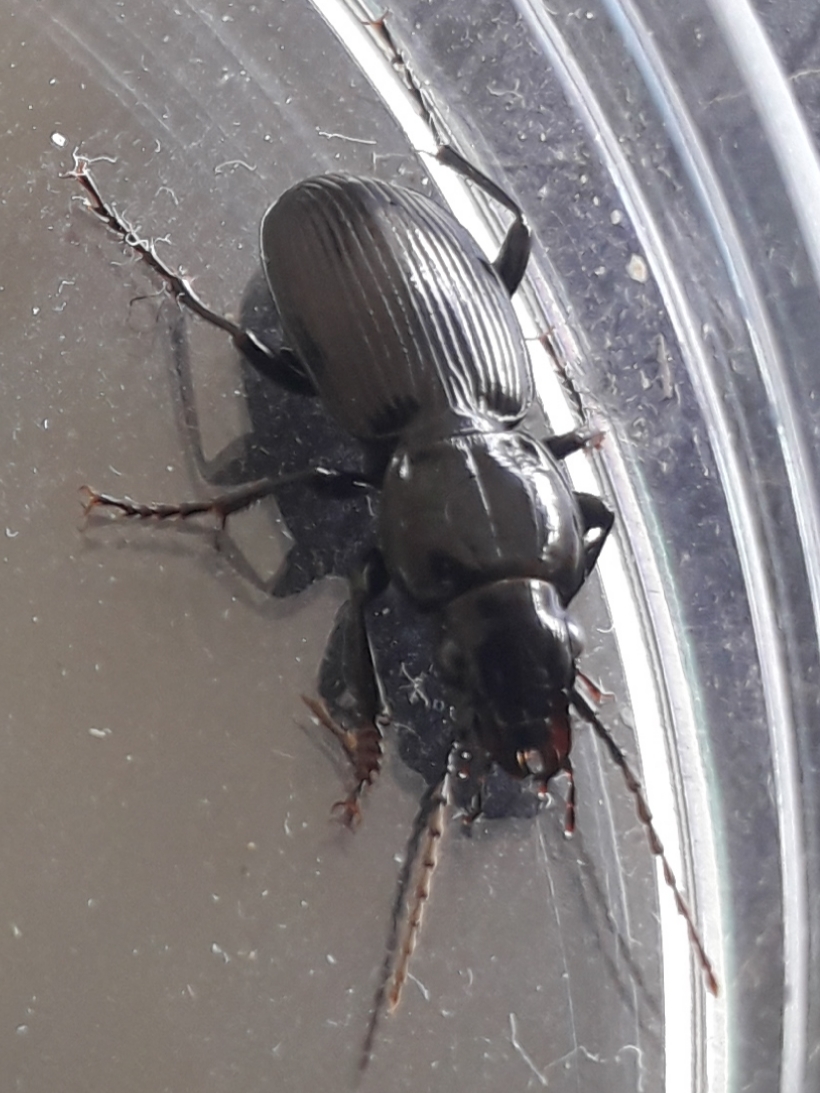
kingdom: Animalia
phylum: Arthropoda
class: Insecta
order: Coleoptera
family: Carabidae
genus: Pterostichus
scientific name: Pterostichus madidus
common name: Black clock
